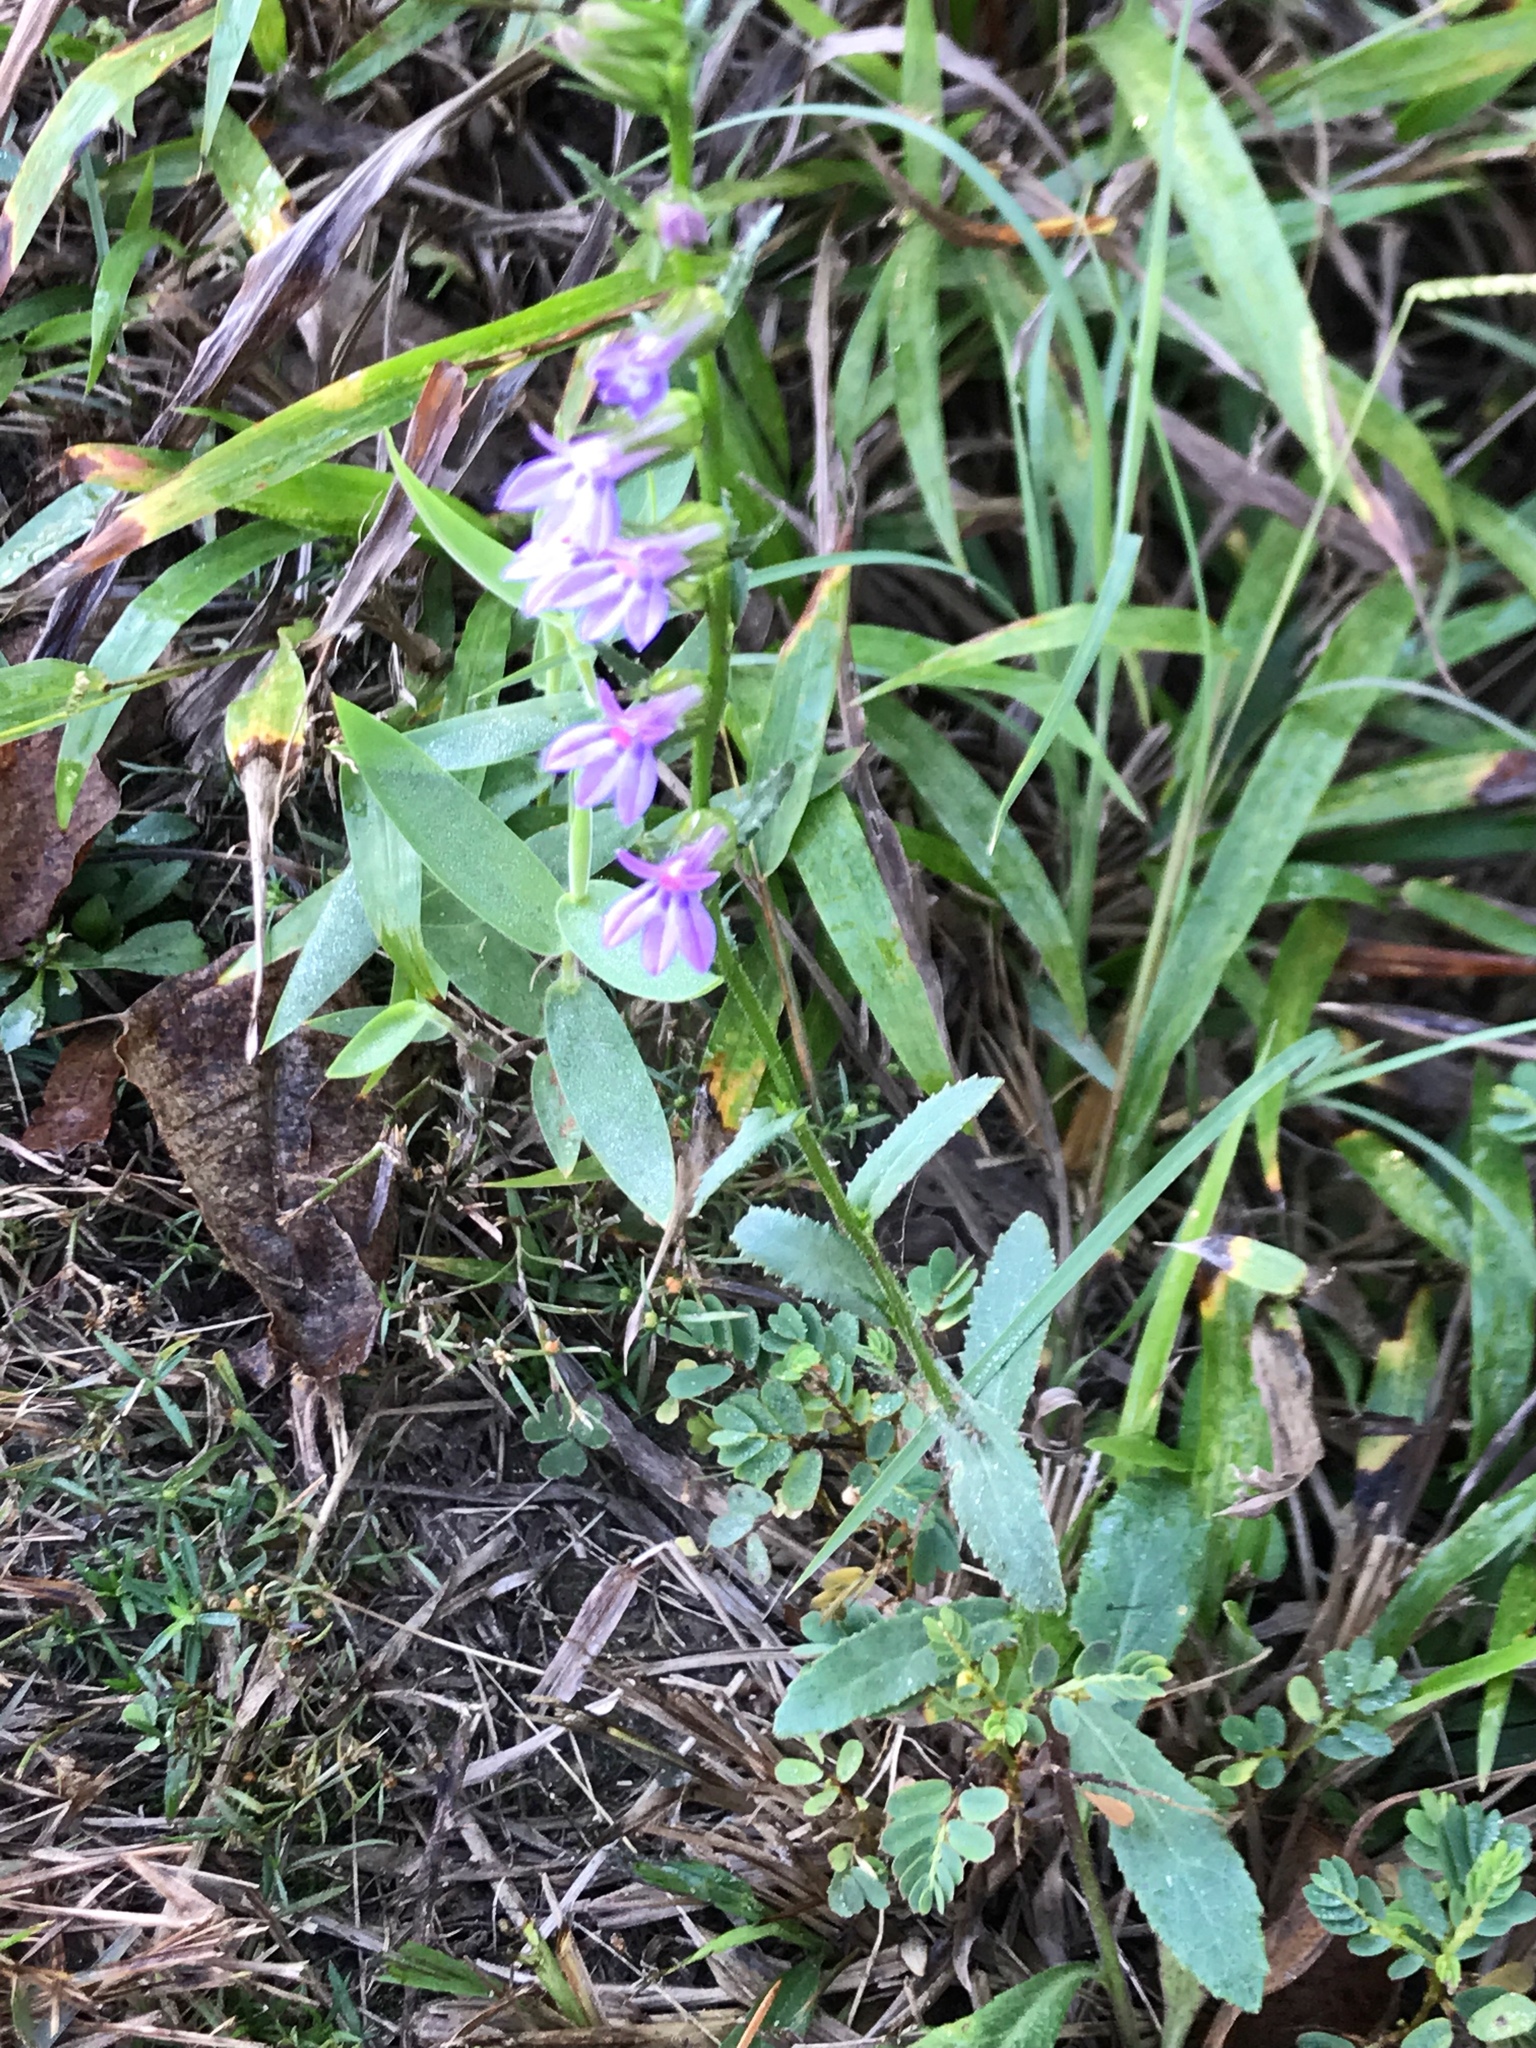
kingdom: Plantae
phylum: Tracheophyta
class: Magnoliopsida
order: Asterales
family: Campanulaceae
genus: Lobelia
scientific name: Lobelia puberula
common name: Purple dewdrop
